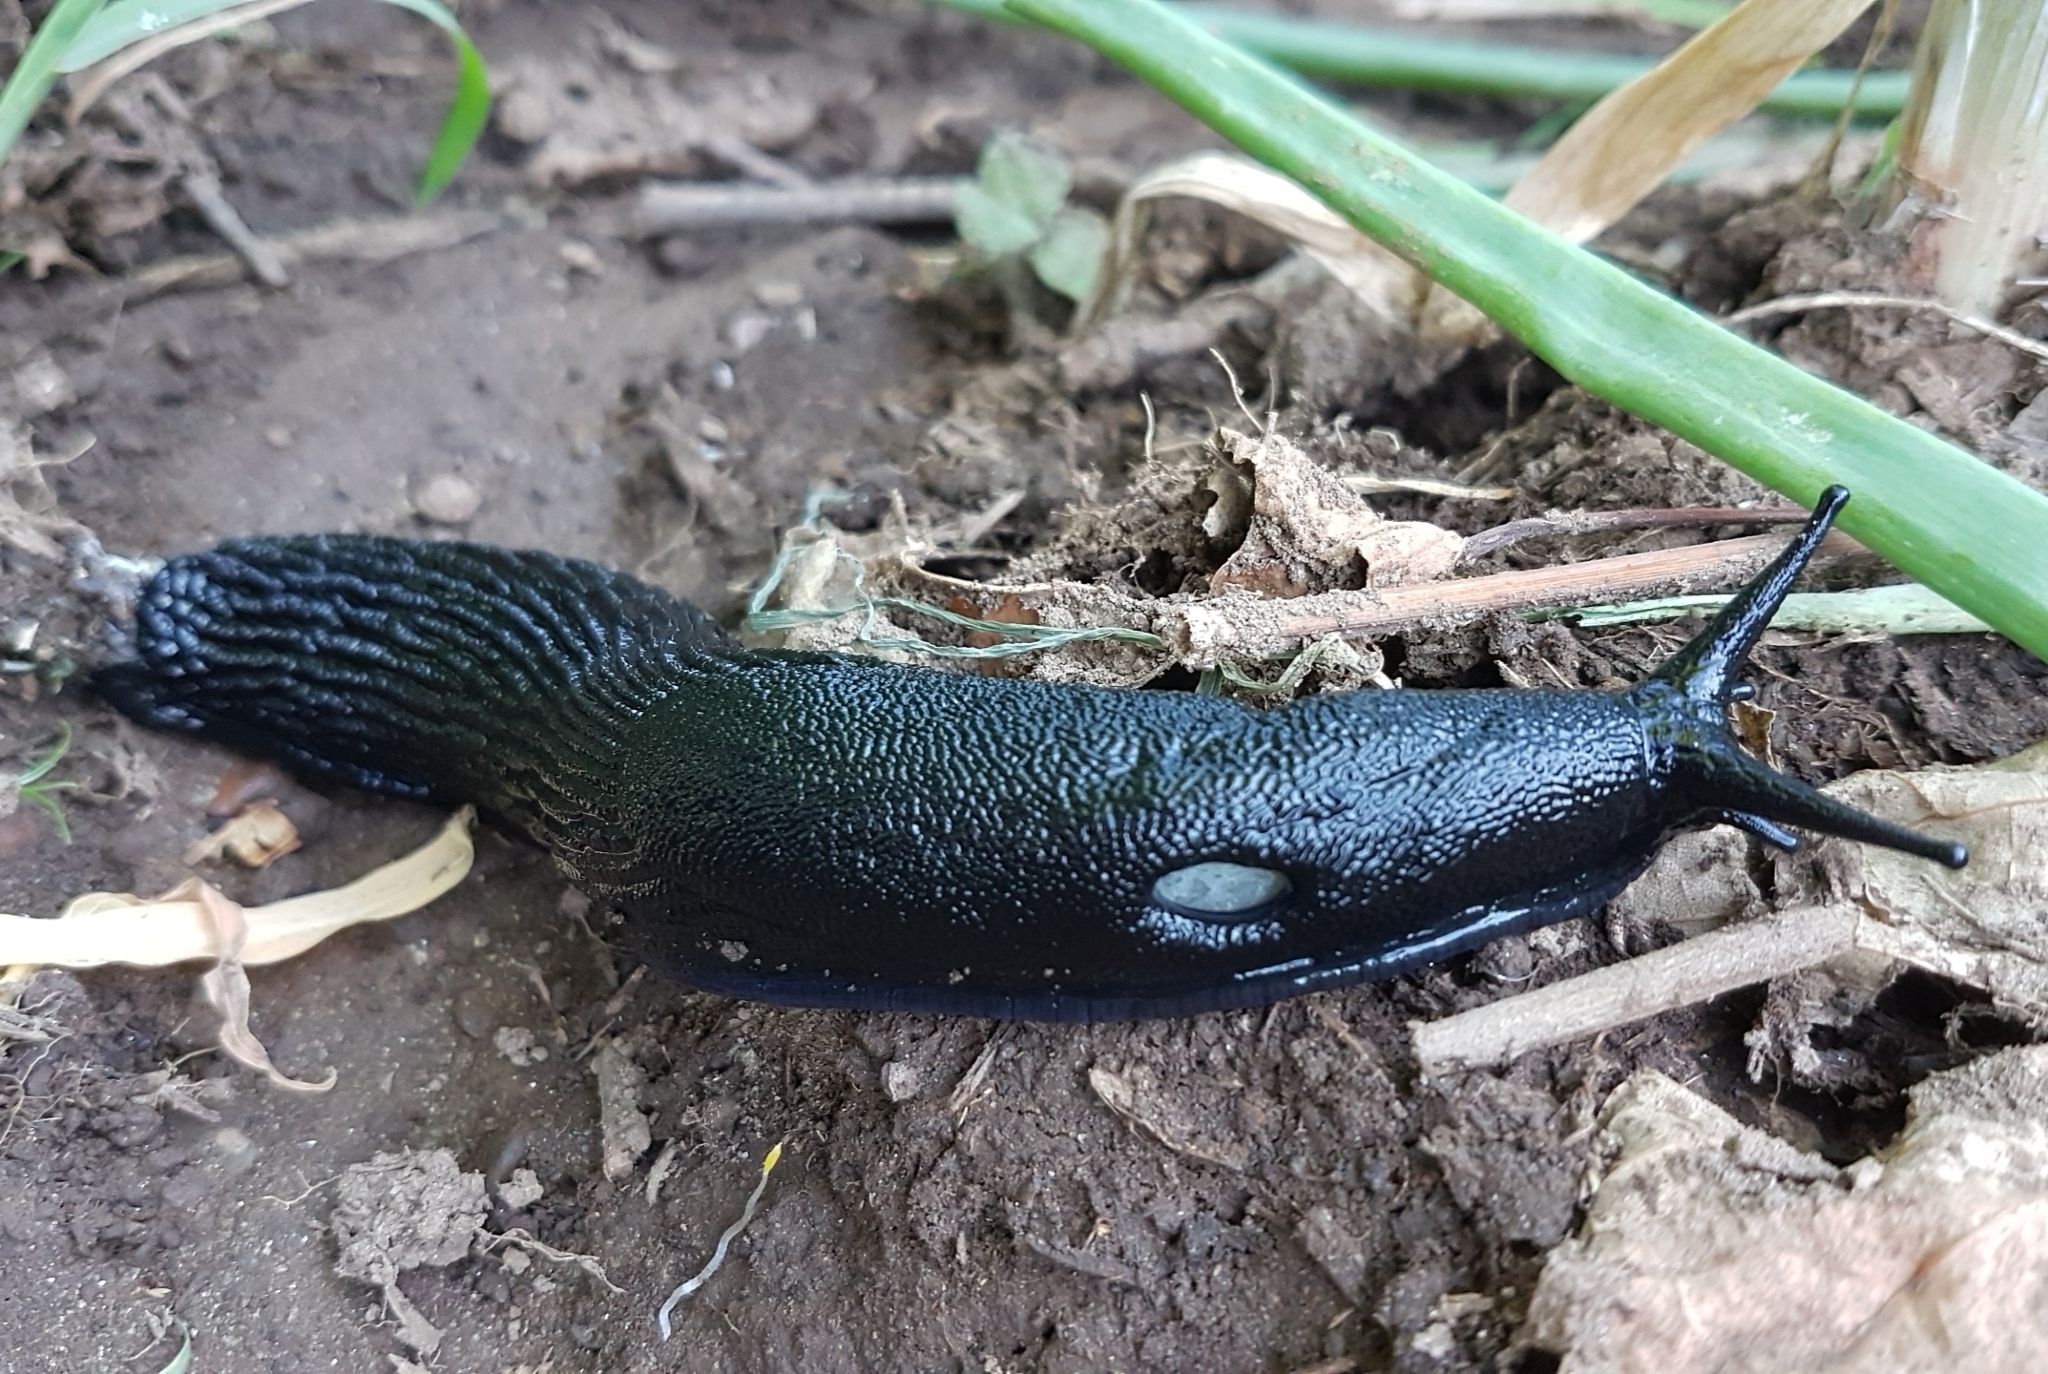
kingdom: Animalia
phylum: Mollusca
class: Gastropoda
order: Stylommatophora
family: Arionidae
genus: Arion
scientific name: Arion ater
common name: Black arion
